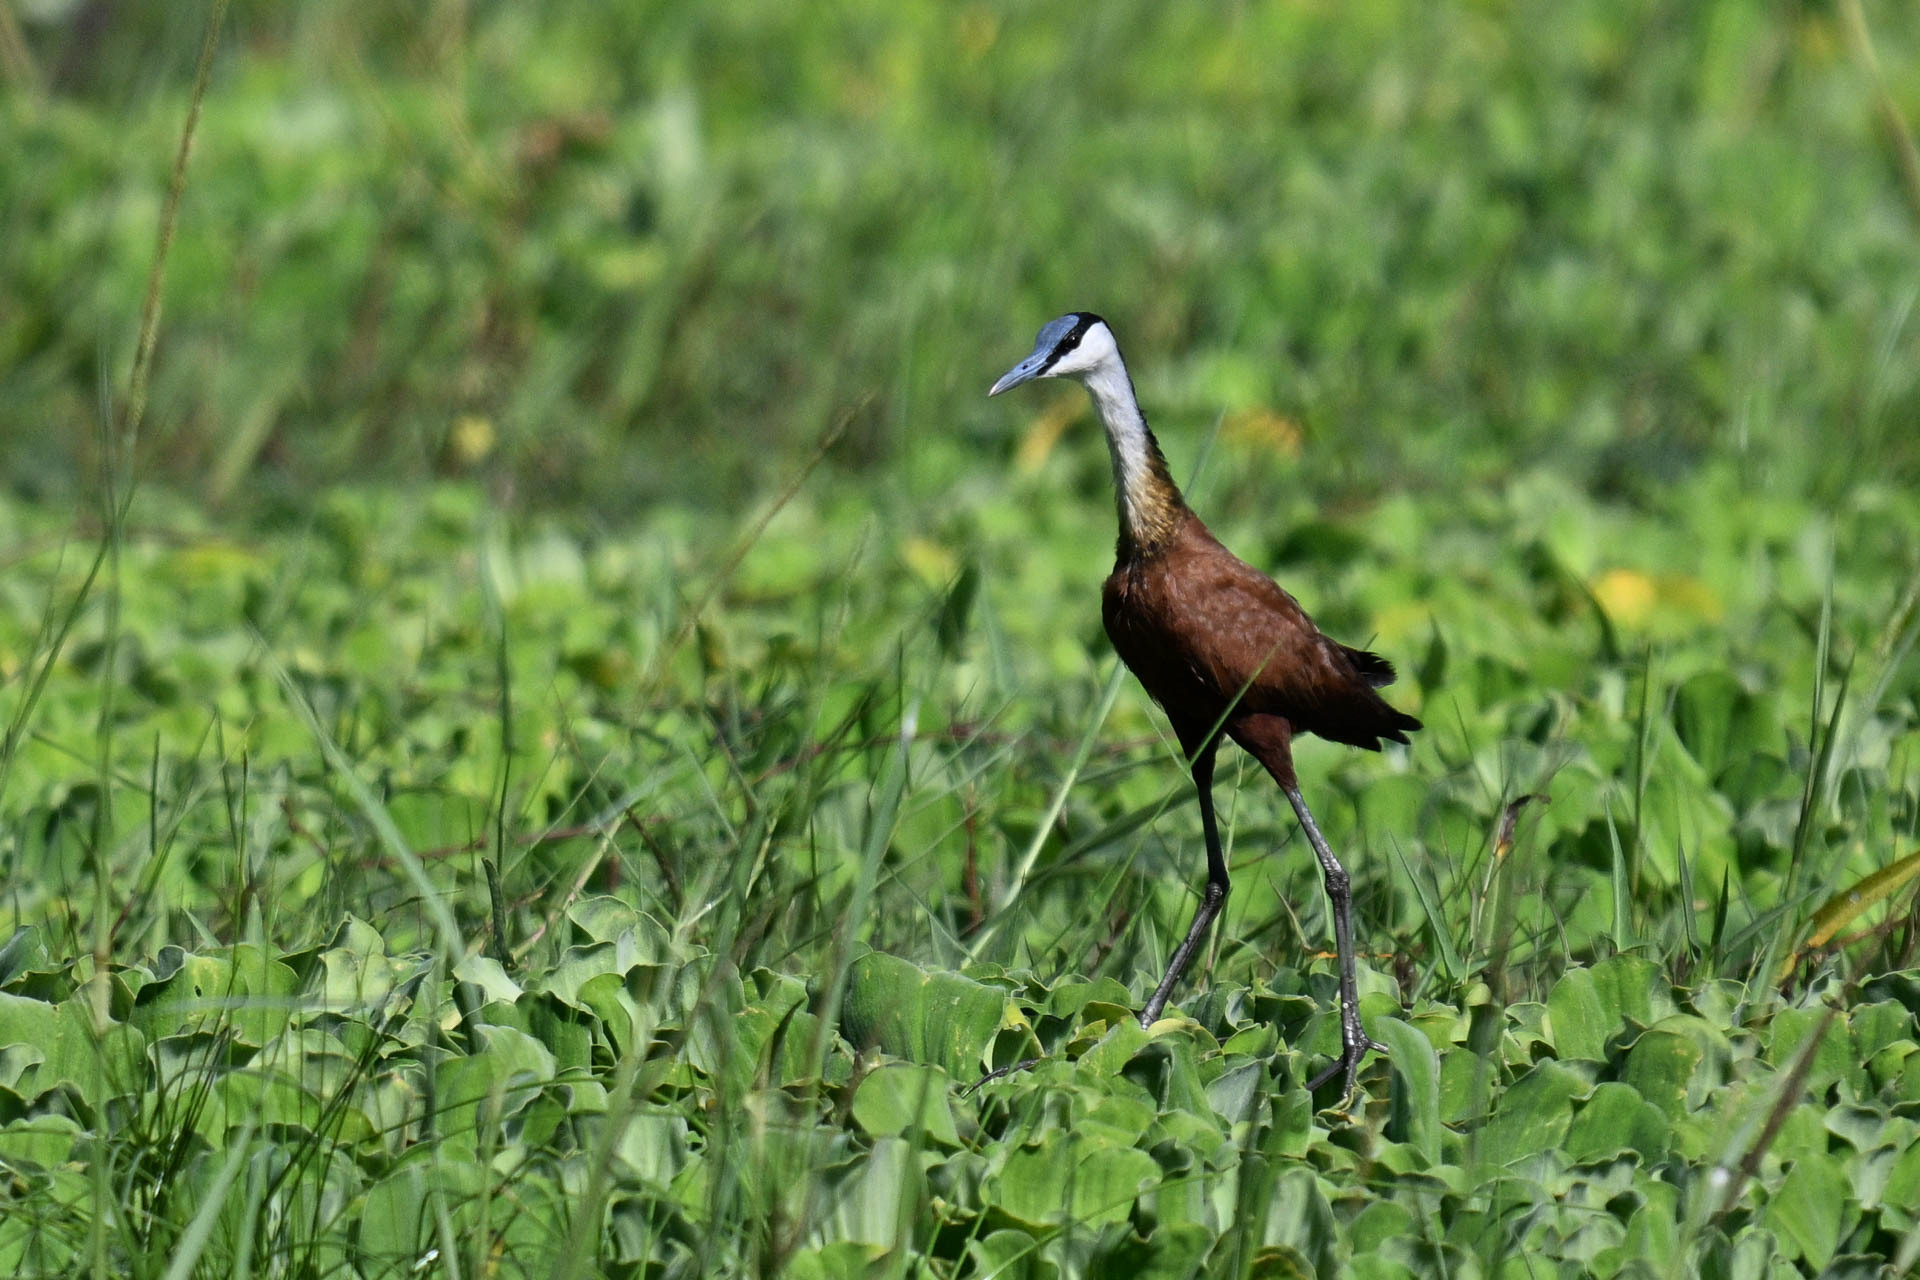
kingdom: Animalia
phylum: Chordata
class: Aves
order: Charadriiformes
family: Jacanidae
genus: Actophilornis
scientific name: Actophilornis africanus
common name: African jacana
